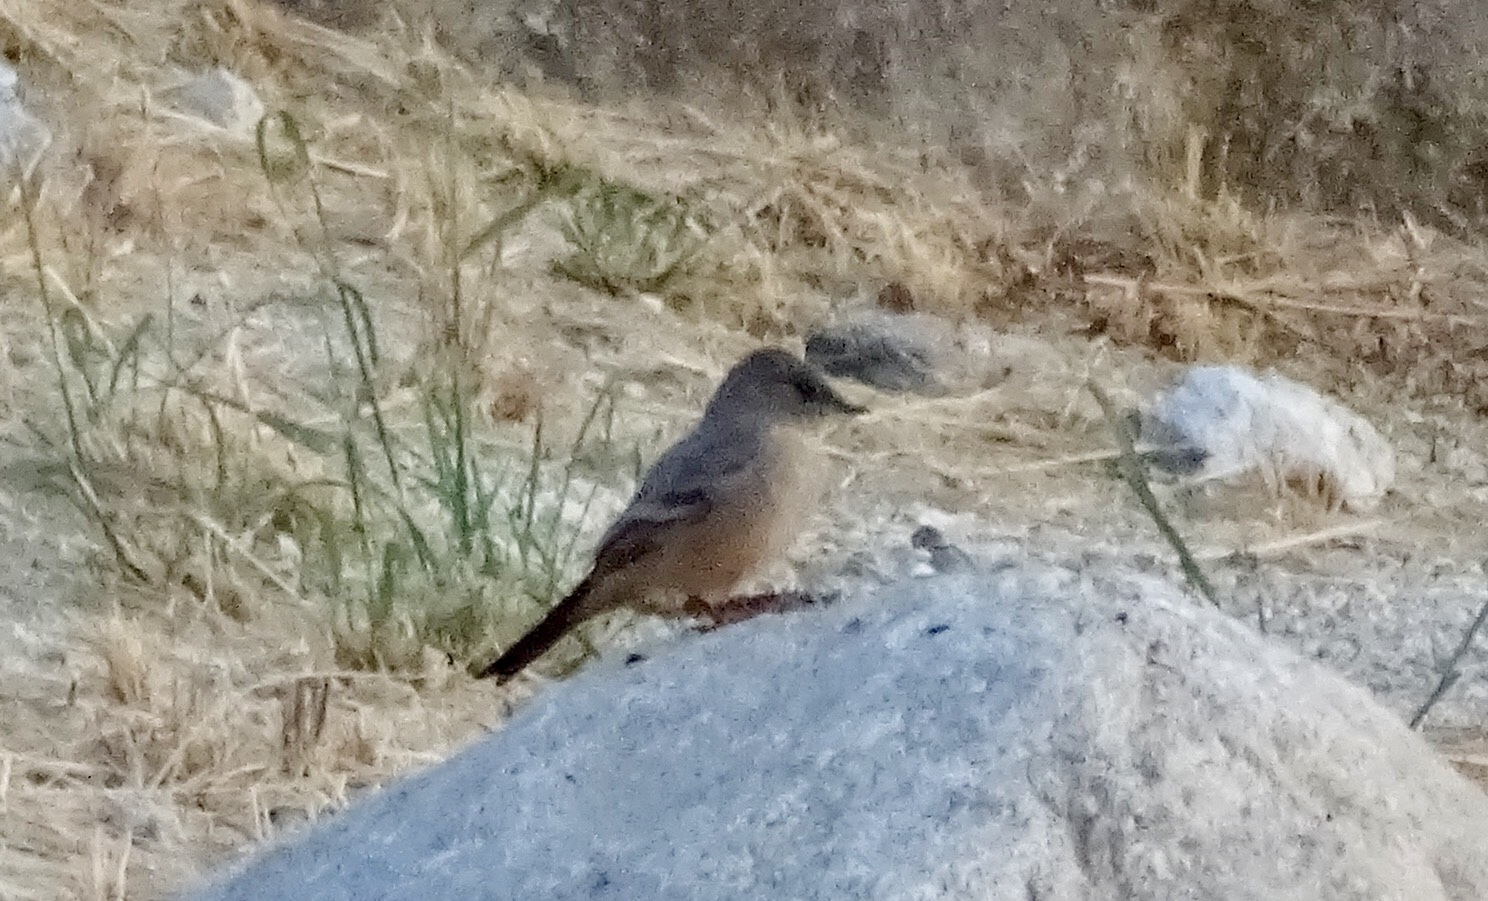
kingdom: Animalia
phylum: Chordata
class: Aves
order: Passeriformes
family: Tyrannidae
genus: Sayornis
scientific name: Sayornis saya
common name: Say's phoebe
